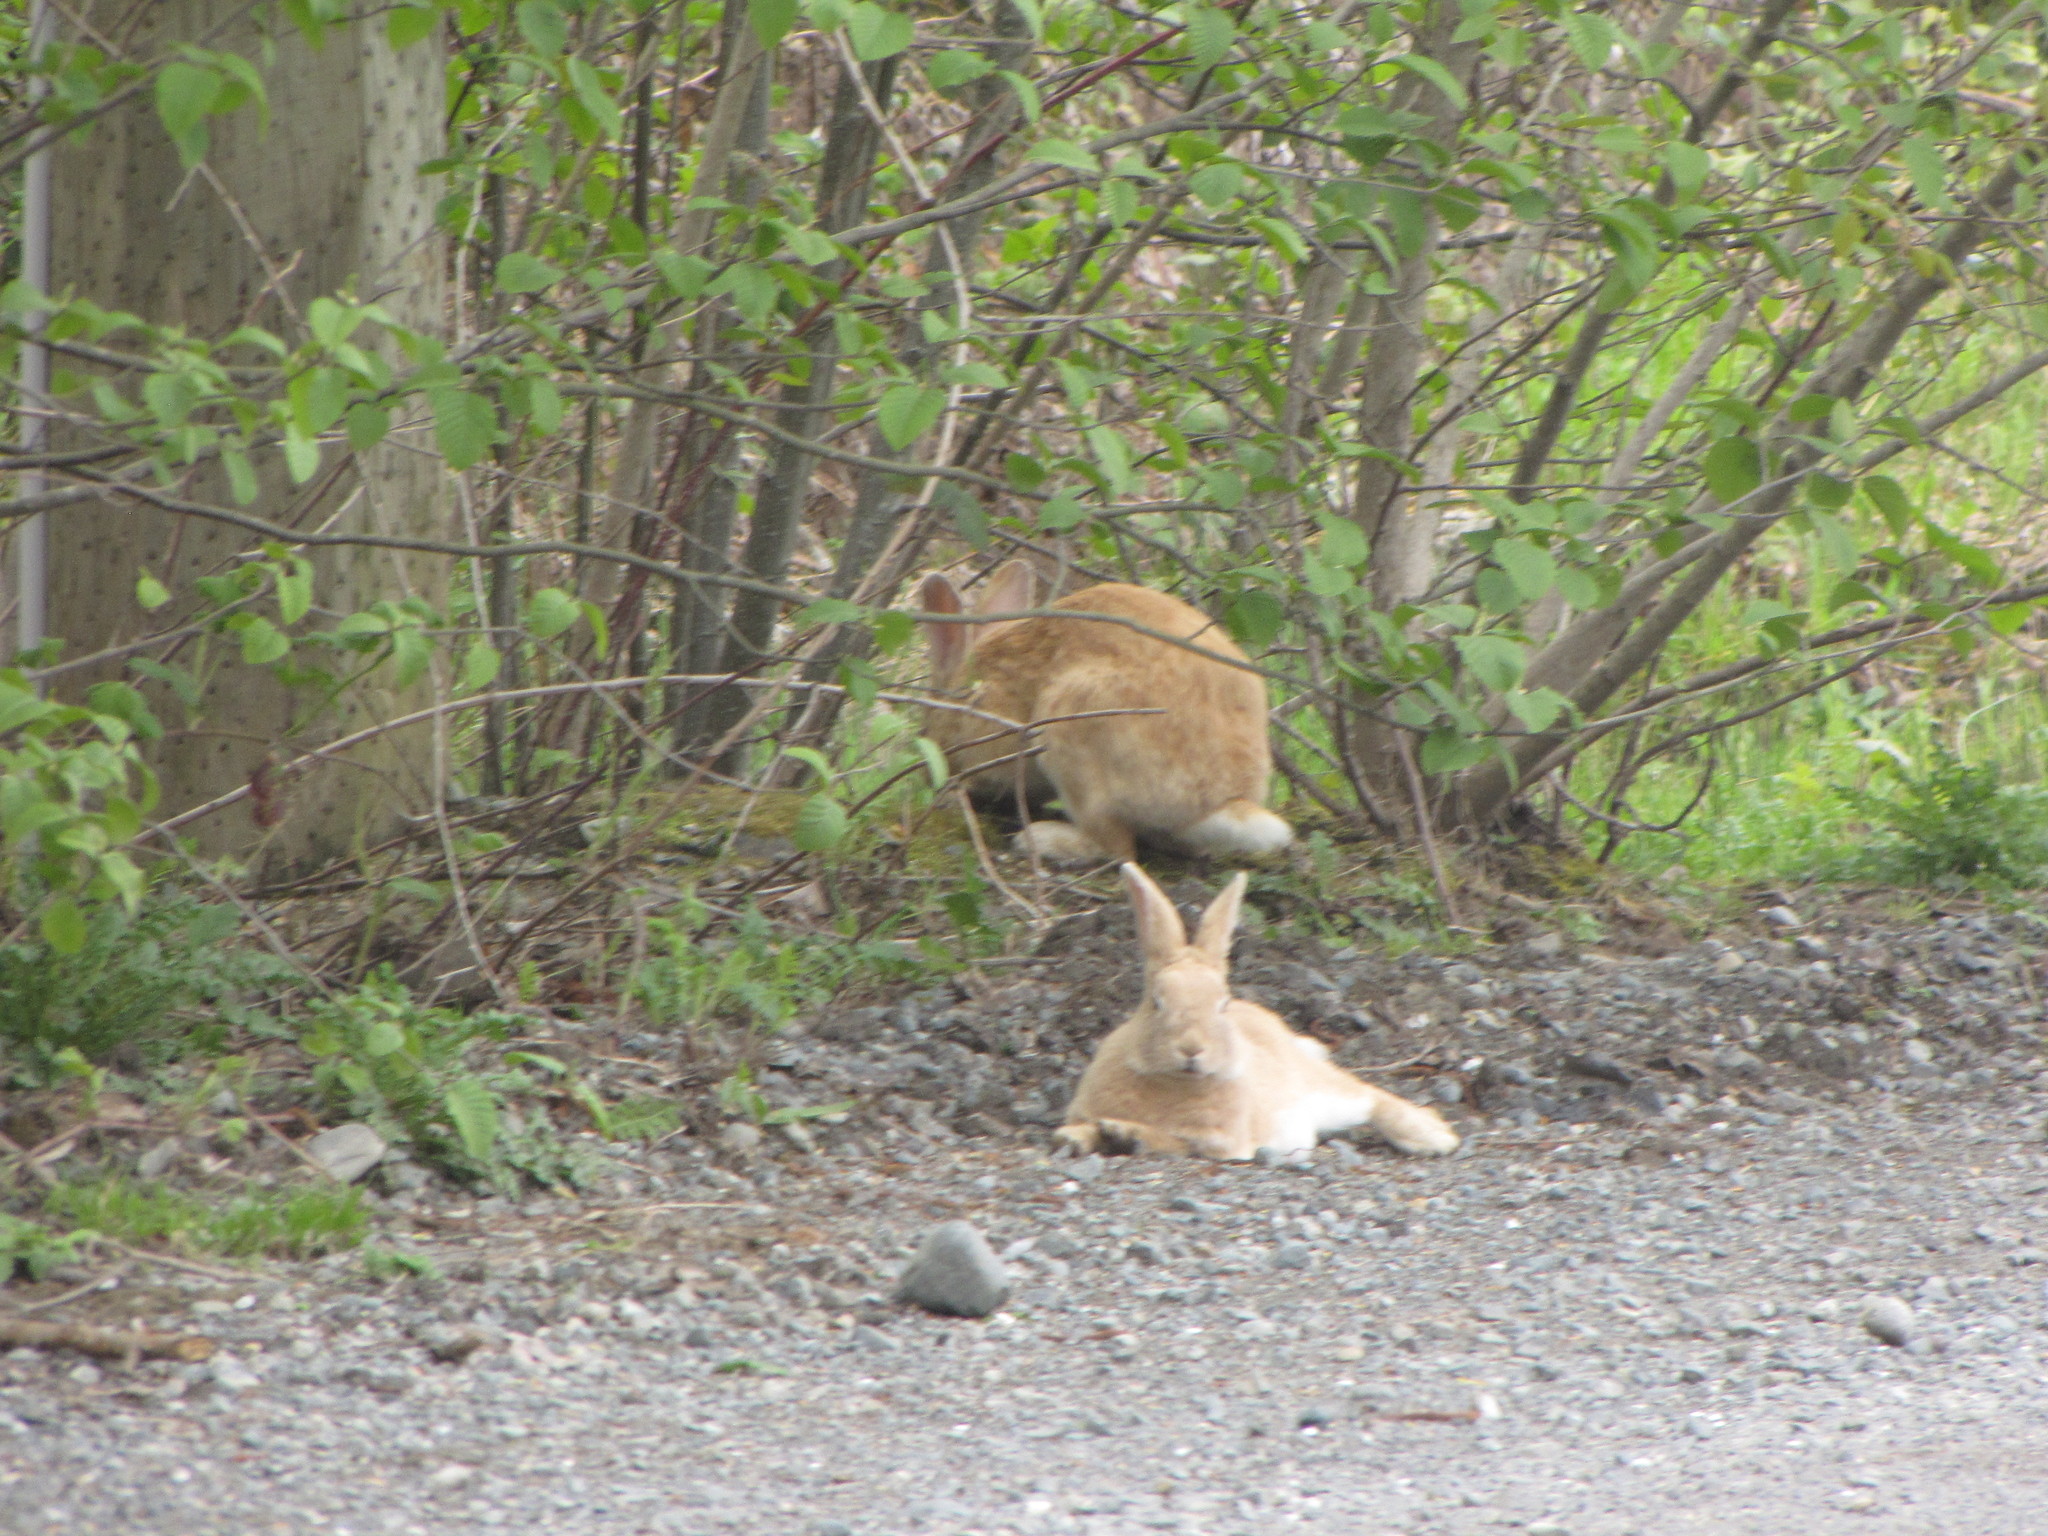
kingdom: Animalia
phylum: Chordata
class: Mammalia
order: Lagomorpha
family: Leporidae
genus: Oryctolagus
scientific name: Oryctolagus cuniculus
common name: European rabbit
